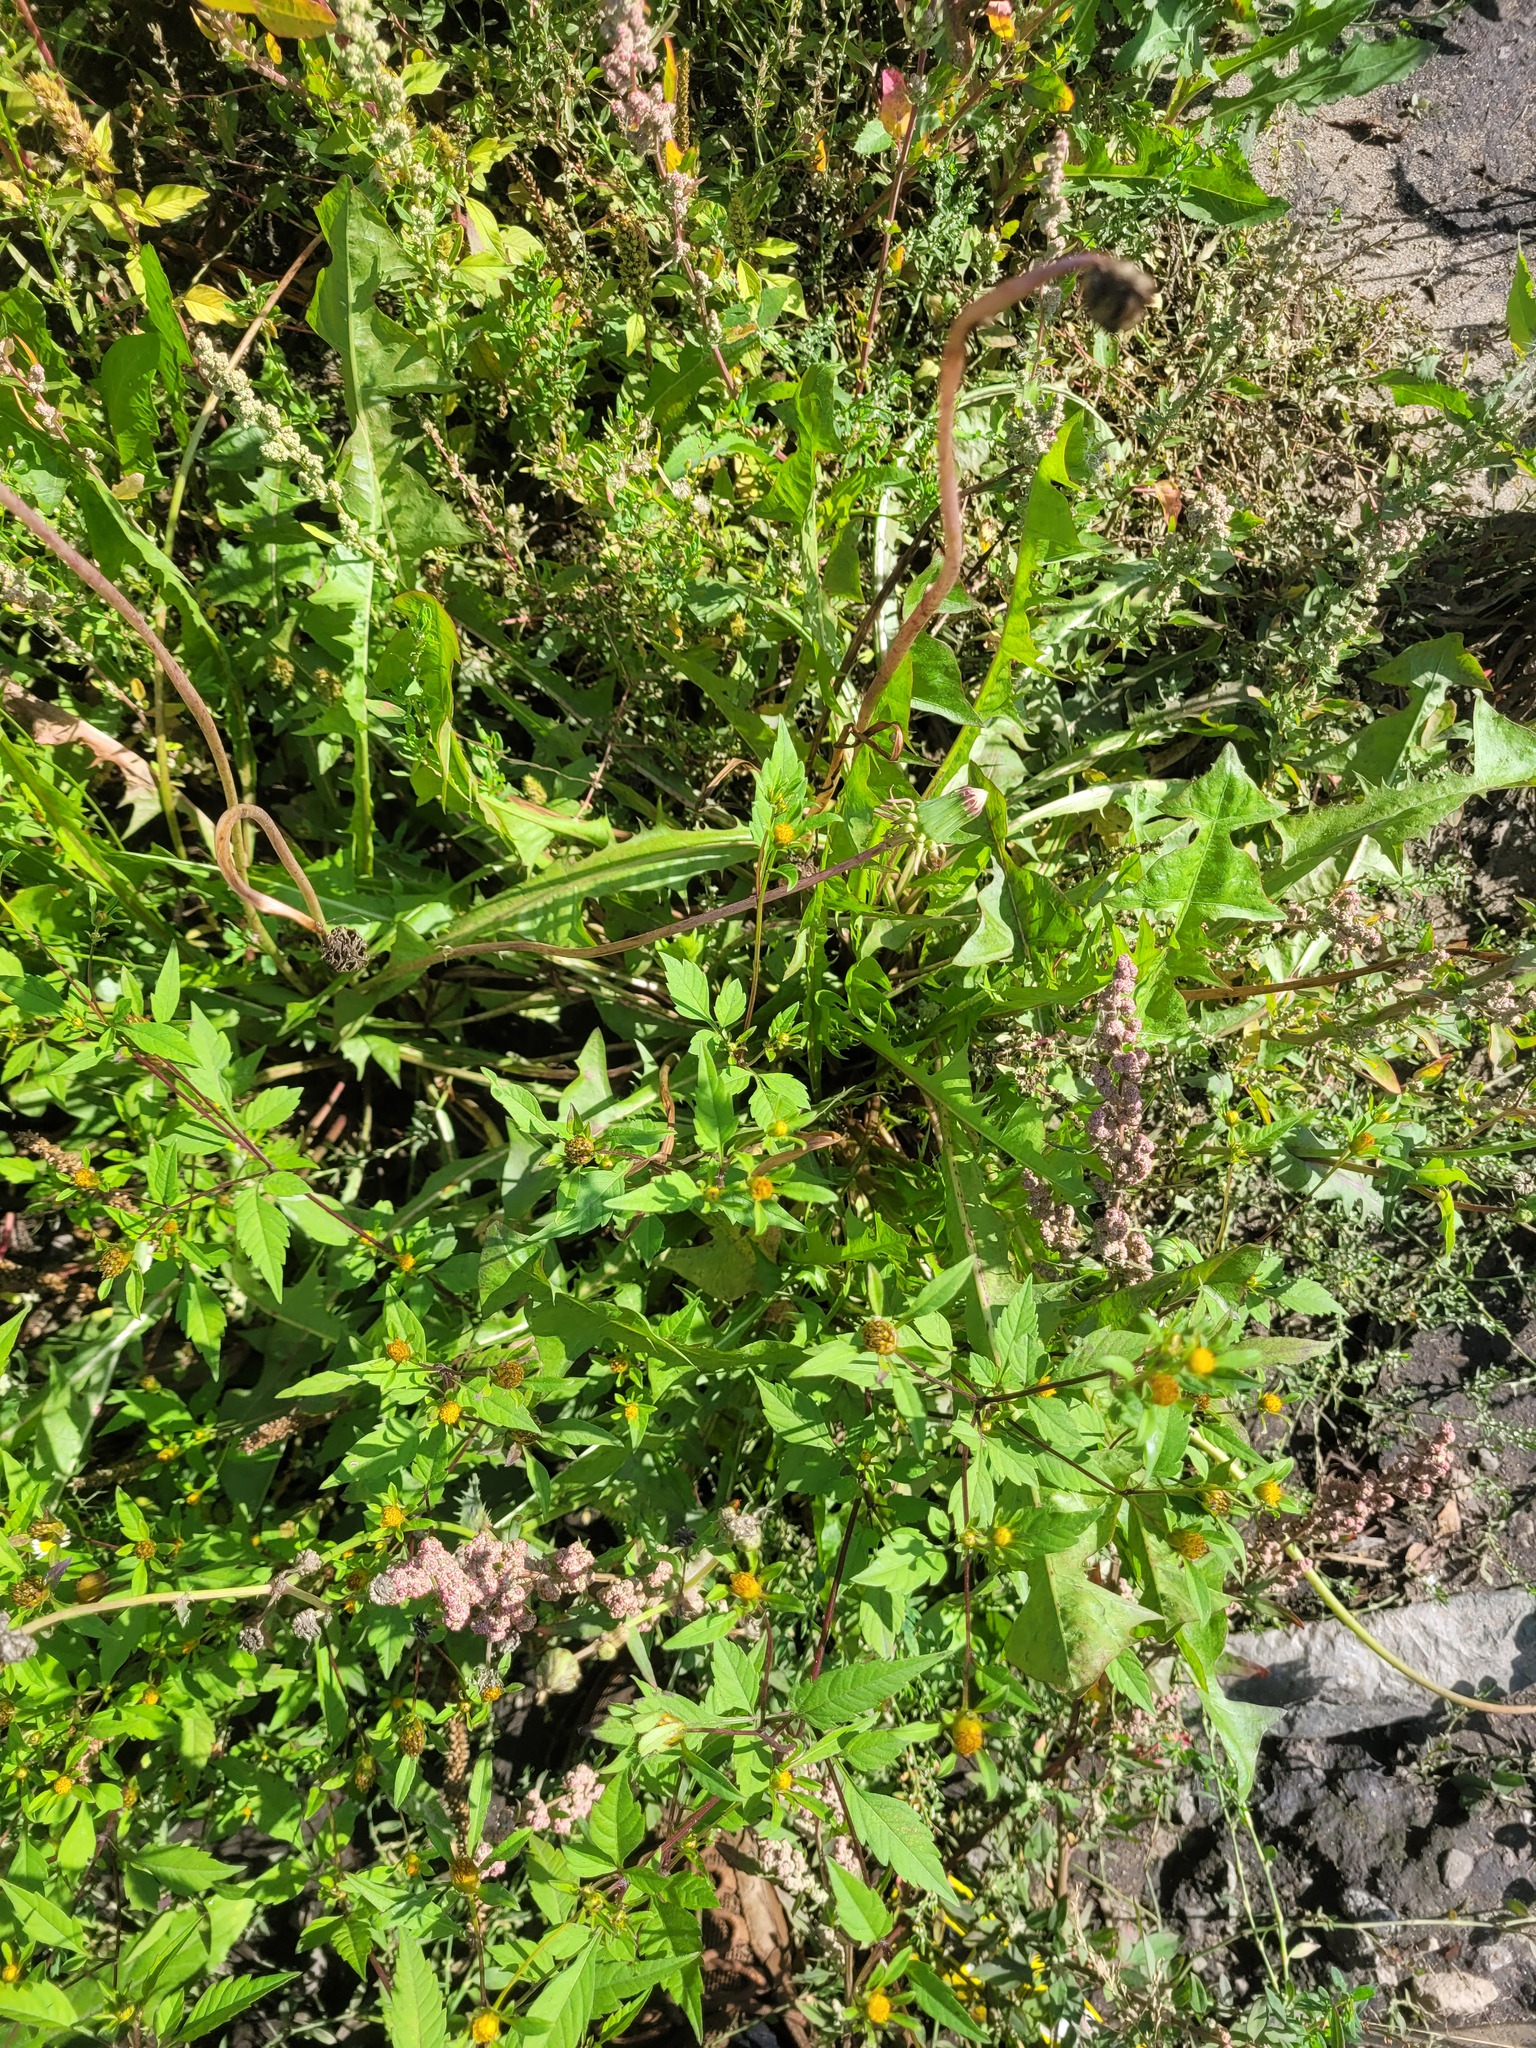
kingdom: Plantae
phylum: Tracheophyta
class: Magnoliopsida
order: Asterales
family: Asteraceae
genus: Bidens
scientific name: Bidens frondosa
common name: Beggarticks
